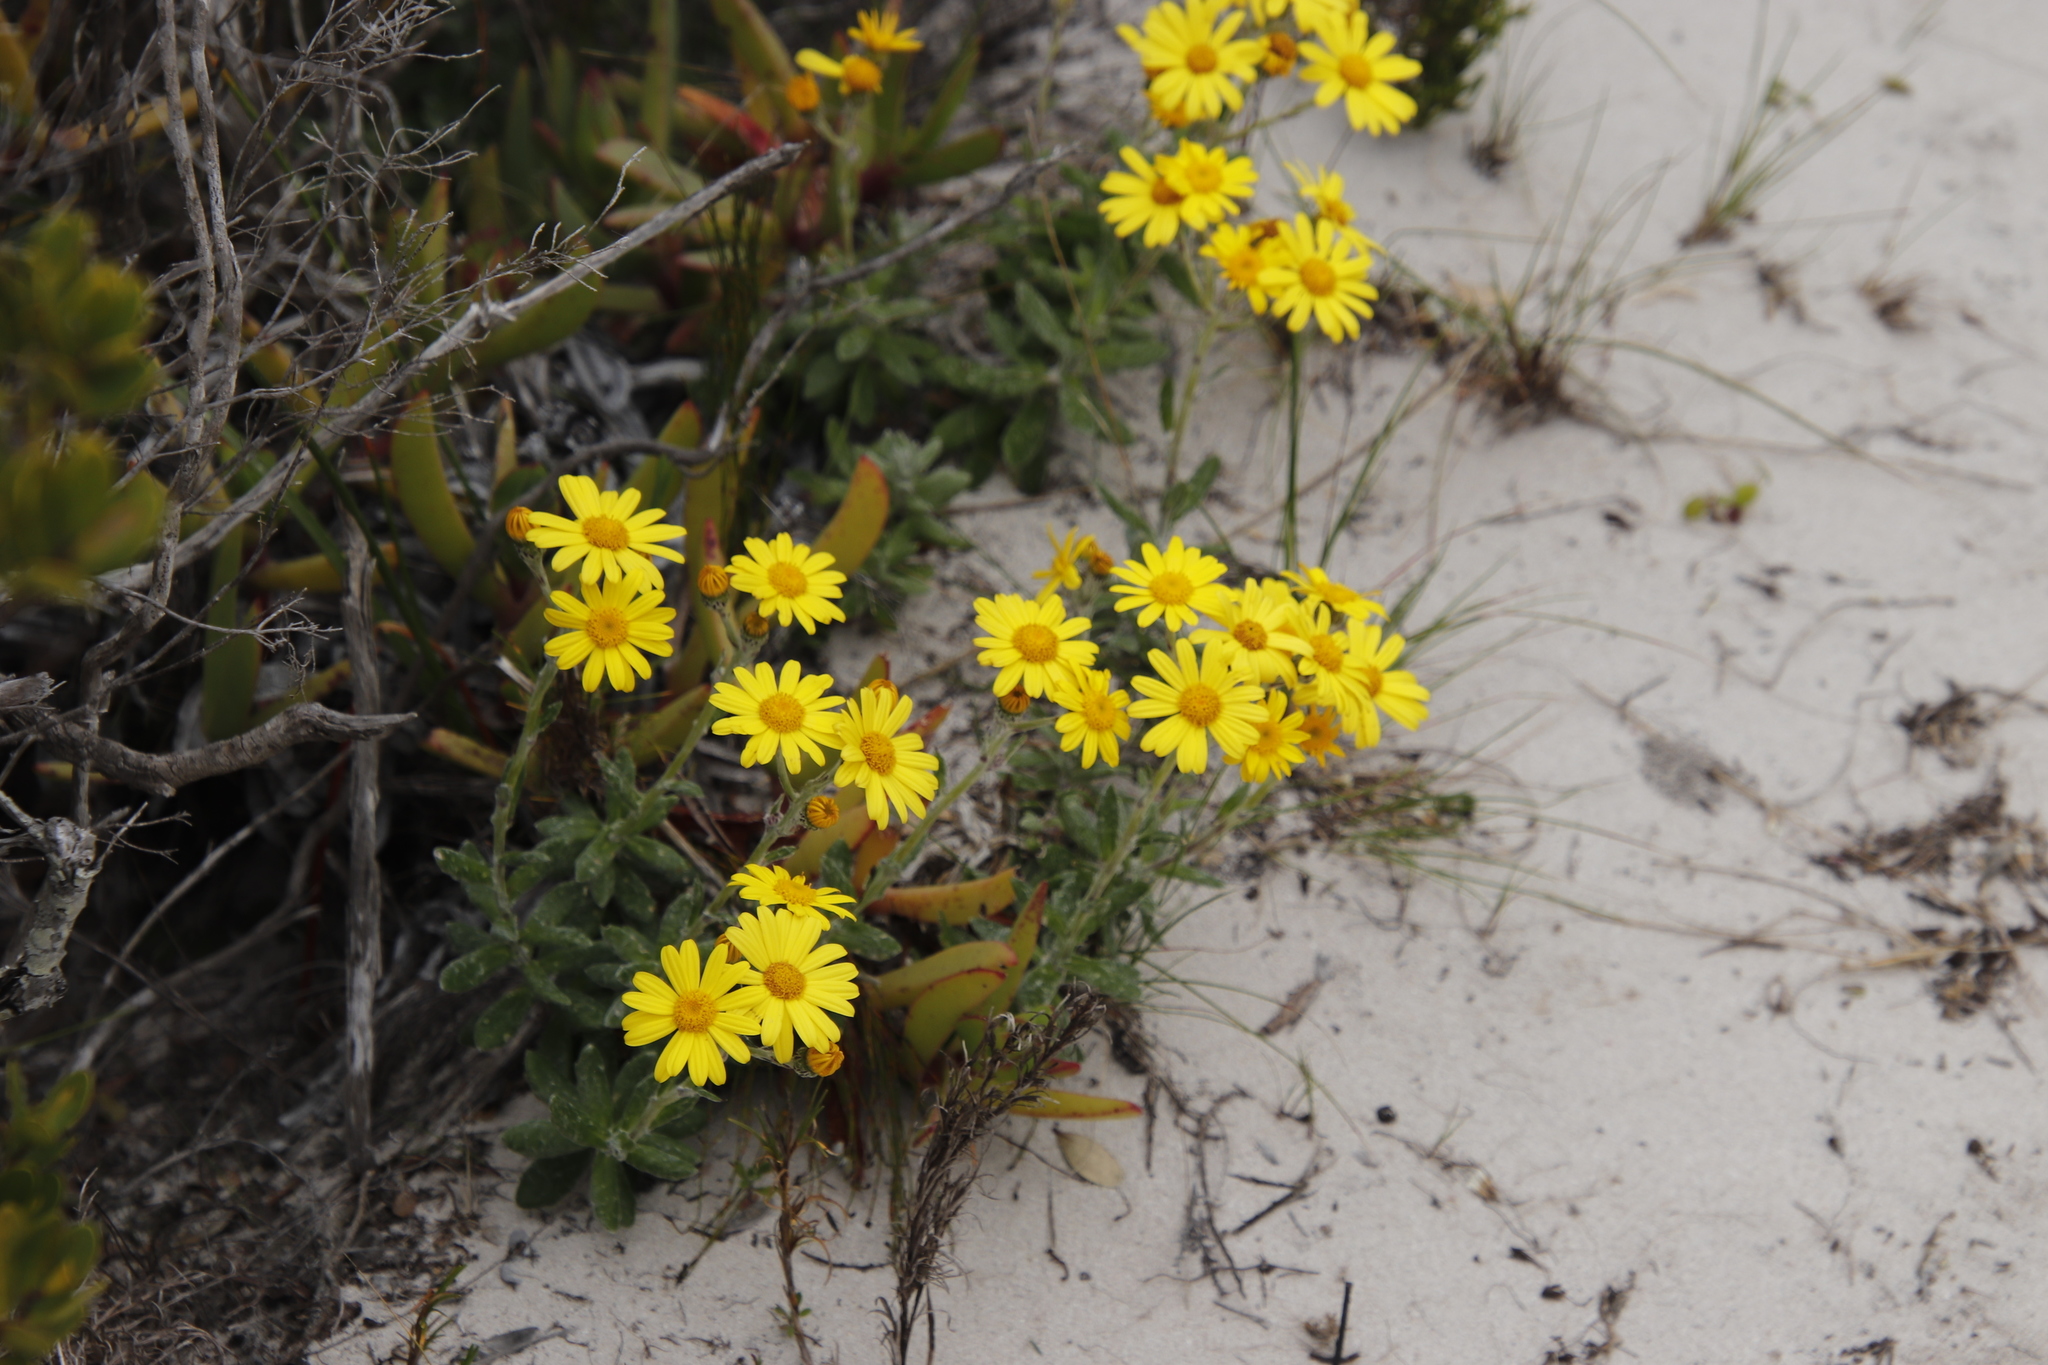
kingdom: Plantae
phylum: Tracheophyta
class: Magnoliopsida
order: Asterales
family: Asteraceae
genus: Senecio
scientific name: Senecio arniciflorus
